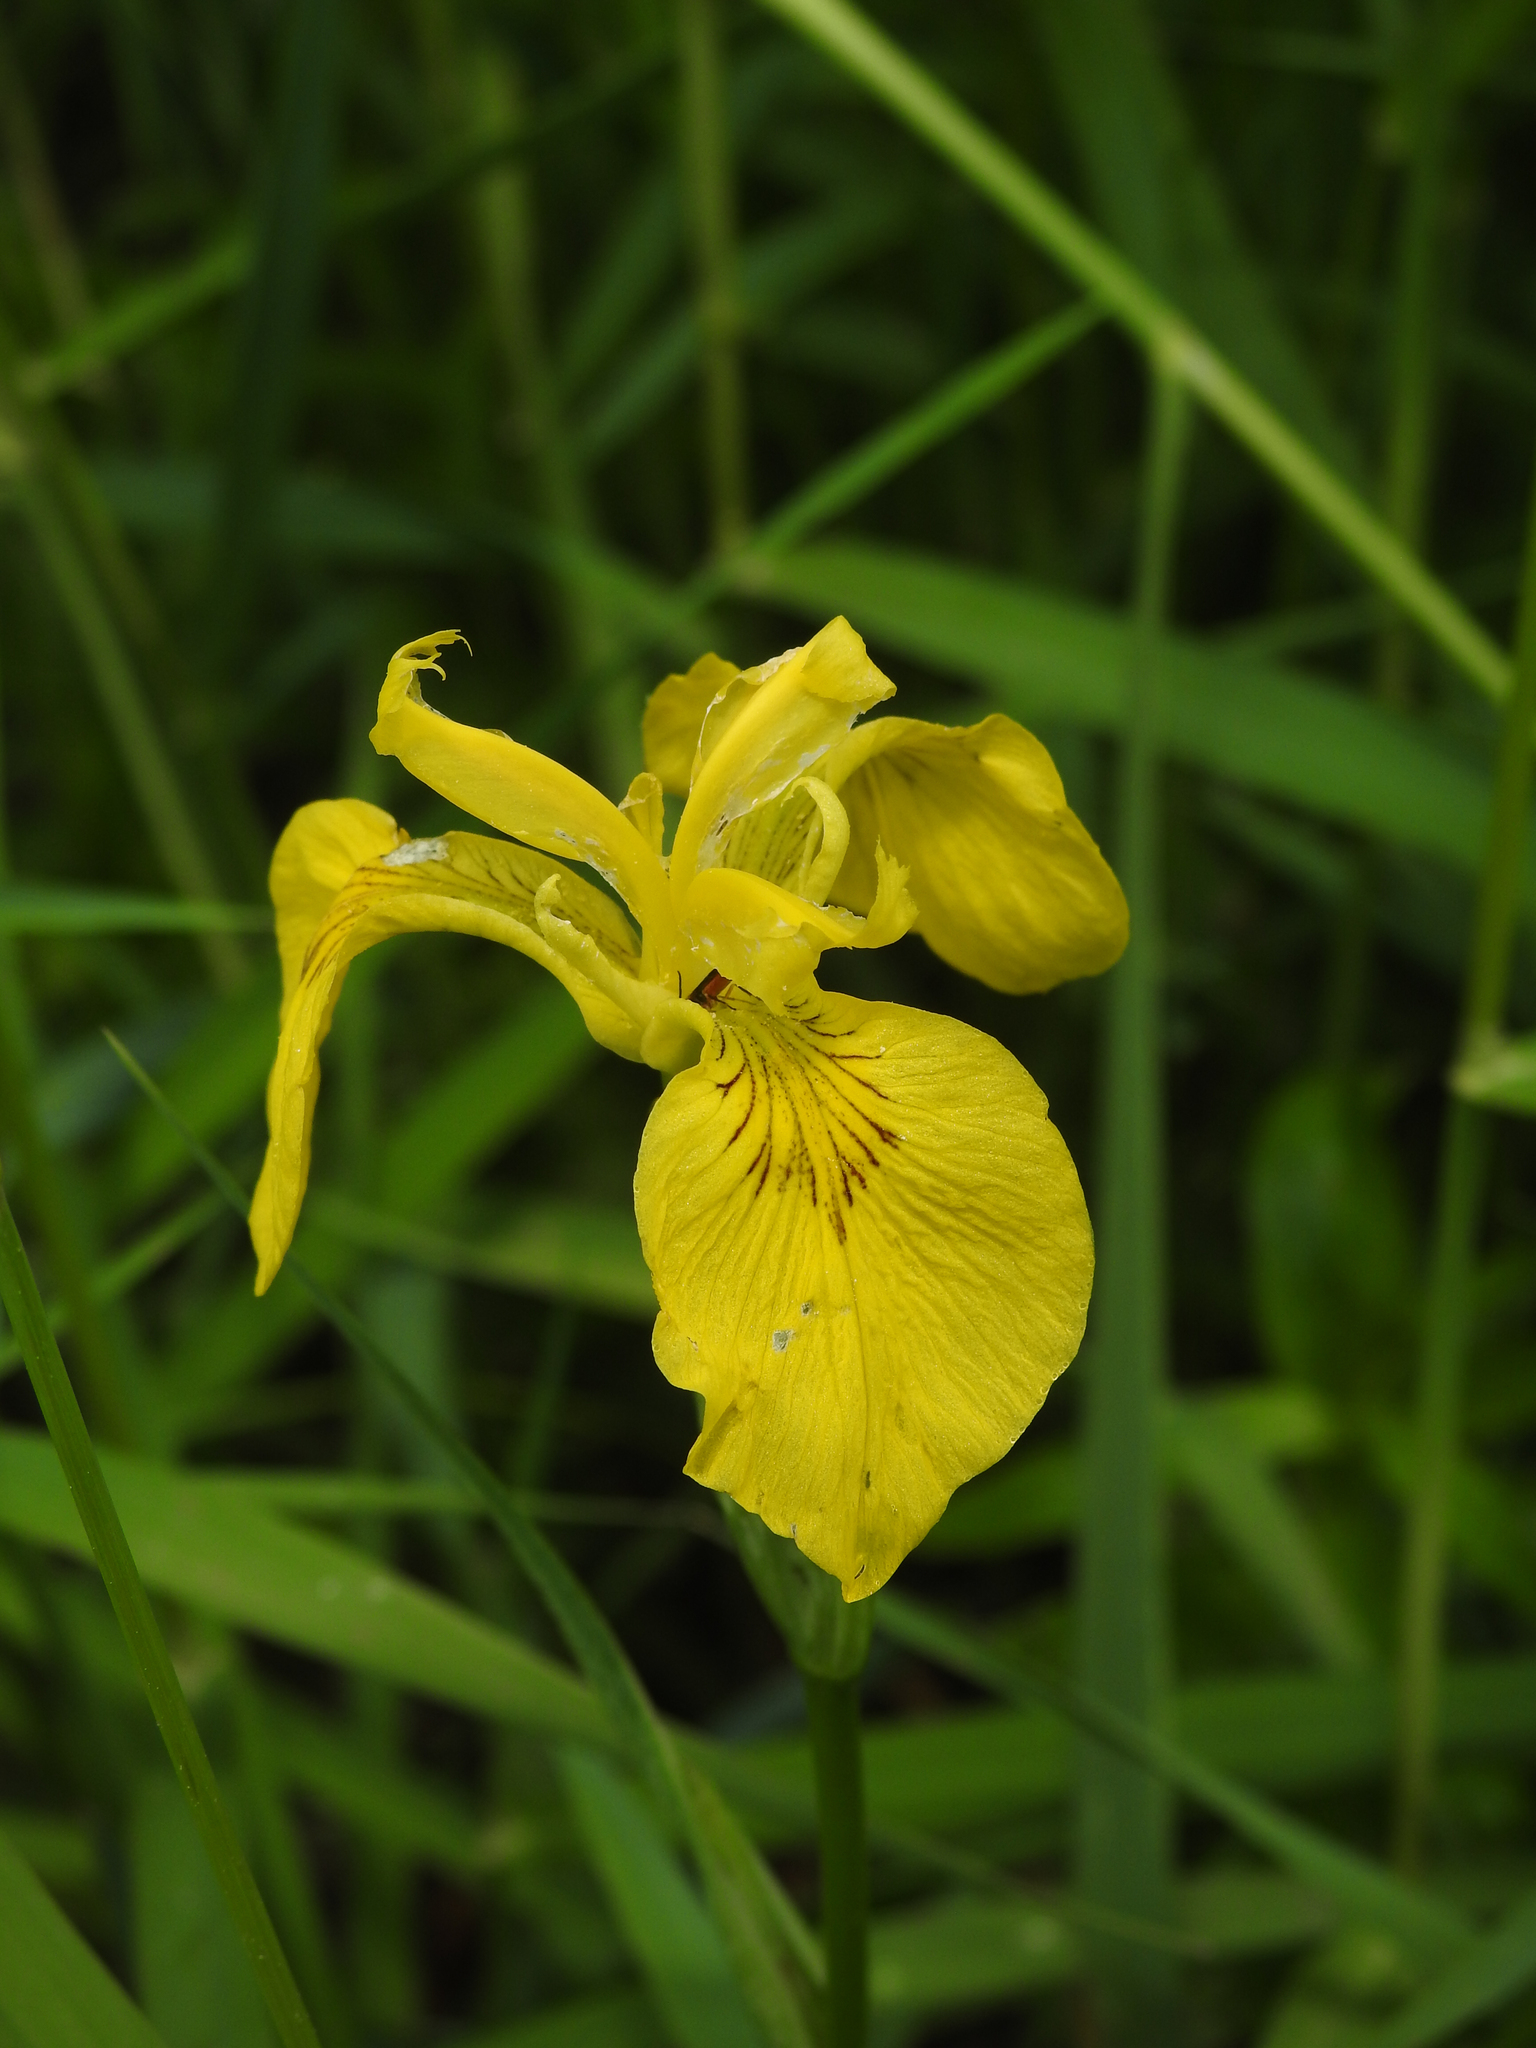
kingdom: Plantae
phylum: Tracheophyta
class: Liliopsida
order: Asparagales
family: Iridaceae
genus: Iris
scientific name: Iris pseudacorus
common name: Yellow flag
